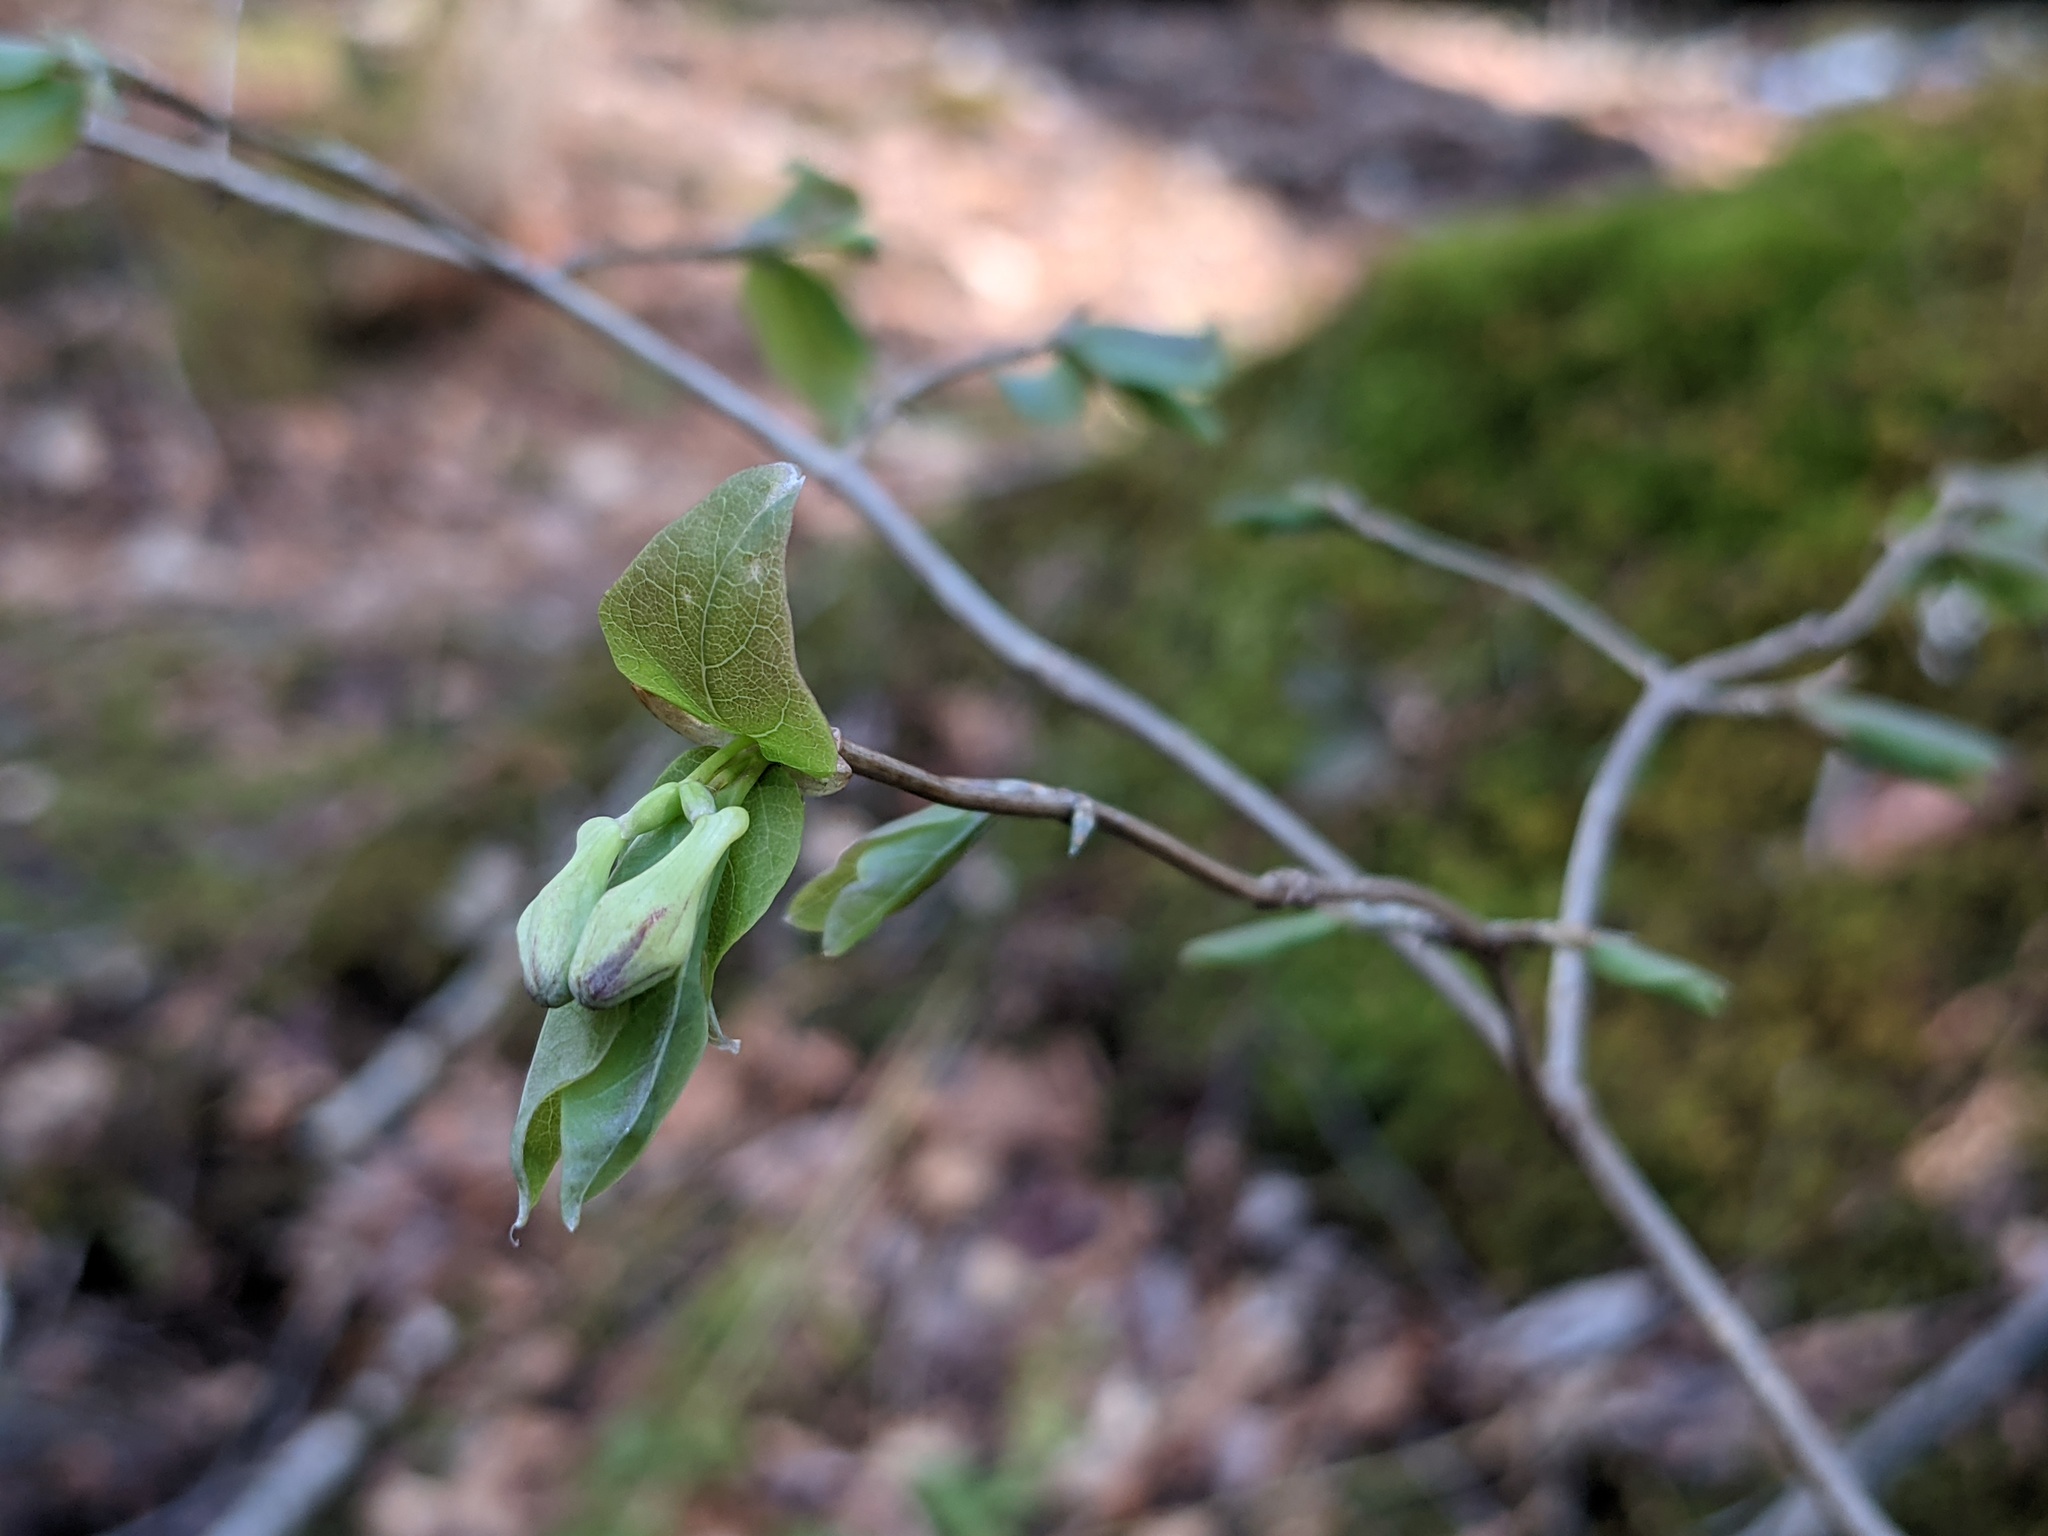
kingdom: Plantae
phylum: Tracheophyta
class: Magnoliopsida
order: Dipsacales
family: Caprifoliaceae
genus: Lonicera
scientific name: Lonicera canadensis
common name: American fly-honeysuckle
